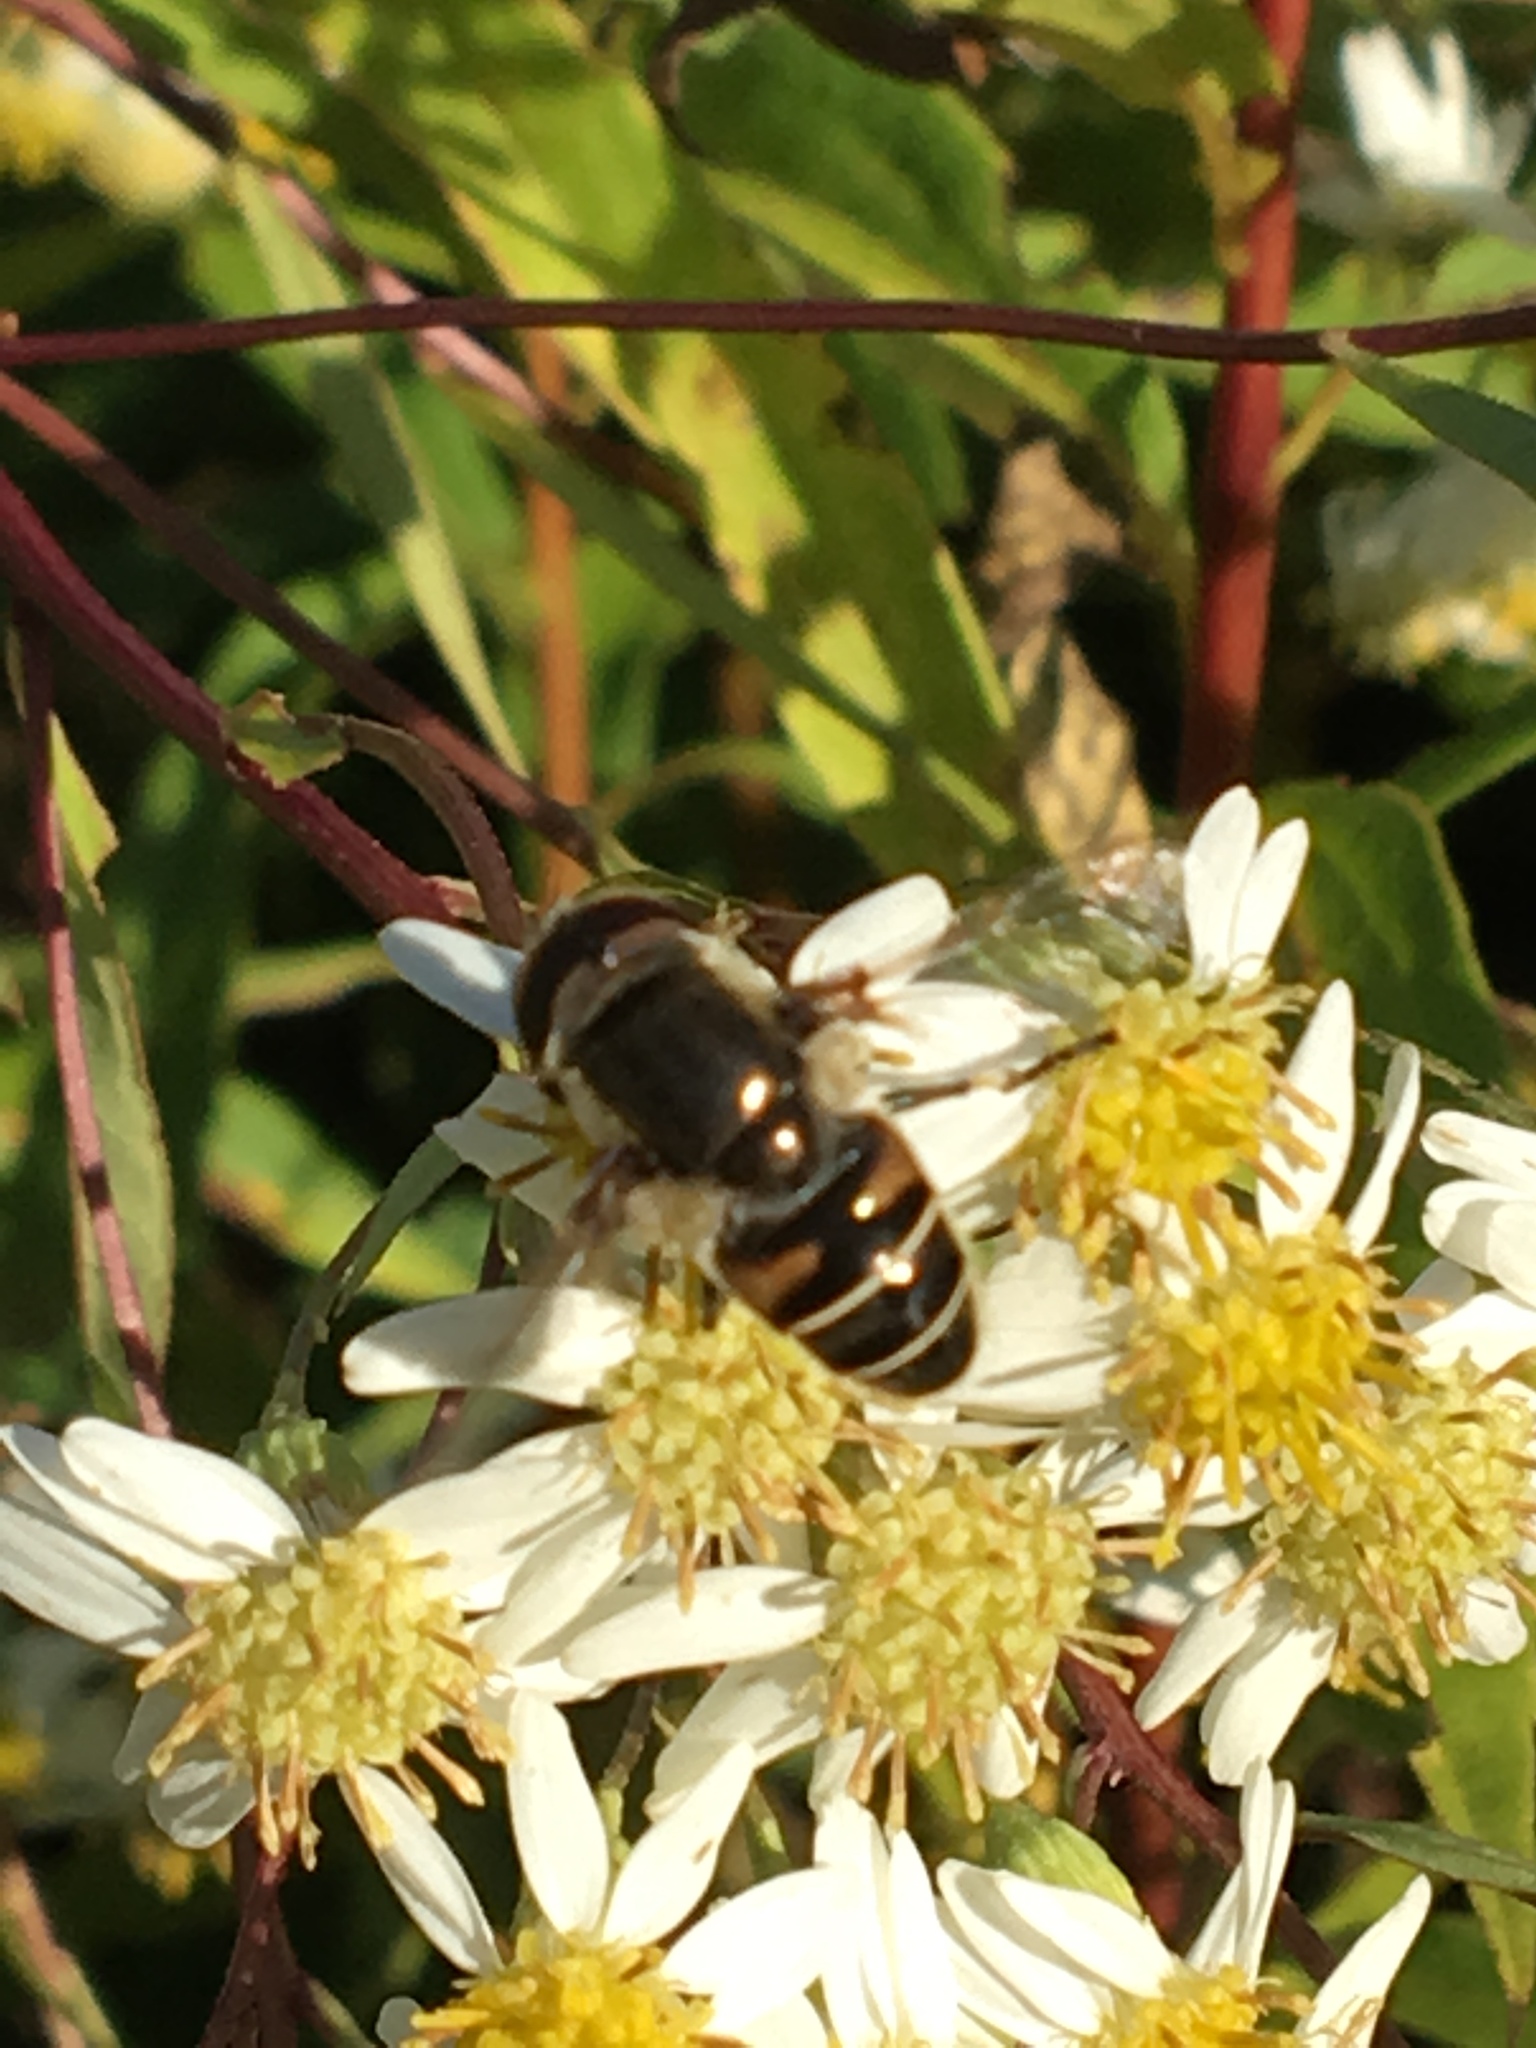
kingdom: Animalia
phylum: Arthropoda
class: Insecta
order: Diptera
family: Syrphidae
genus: Eristalis
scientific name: Eristalis dimidiata
